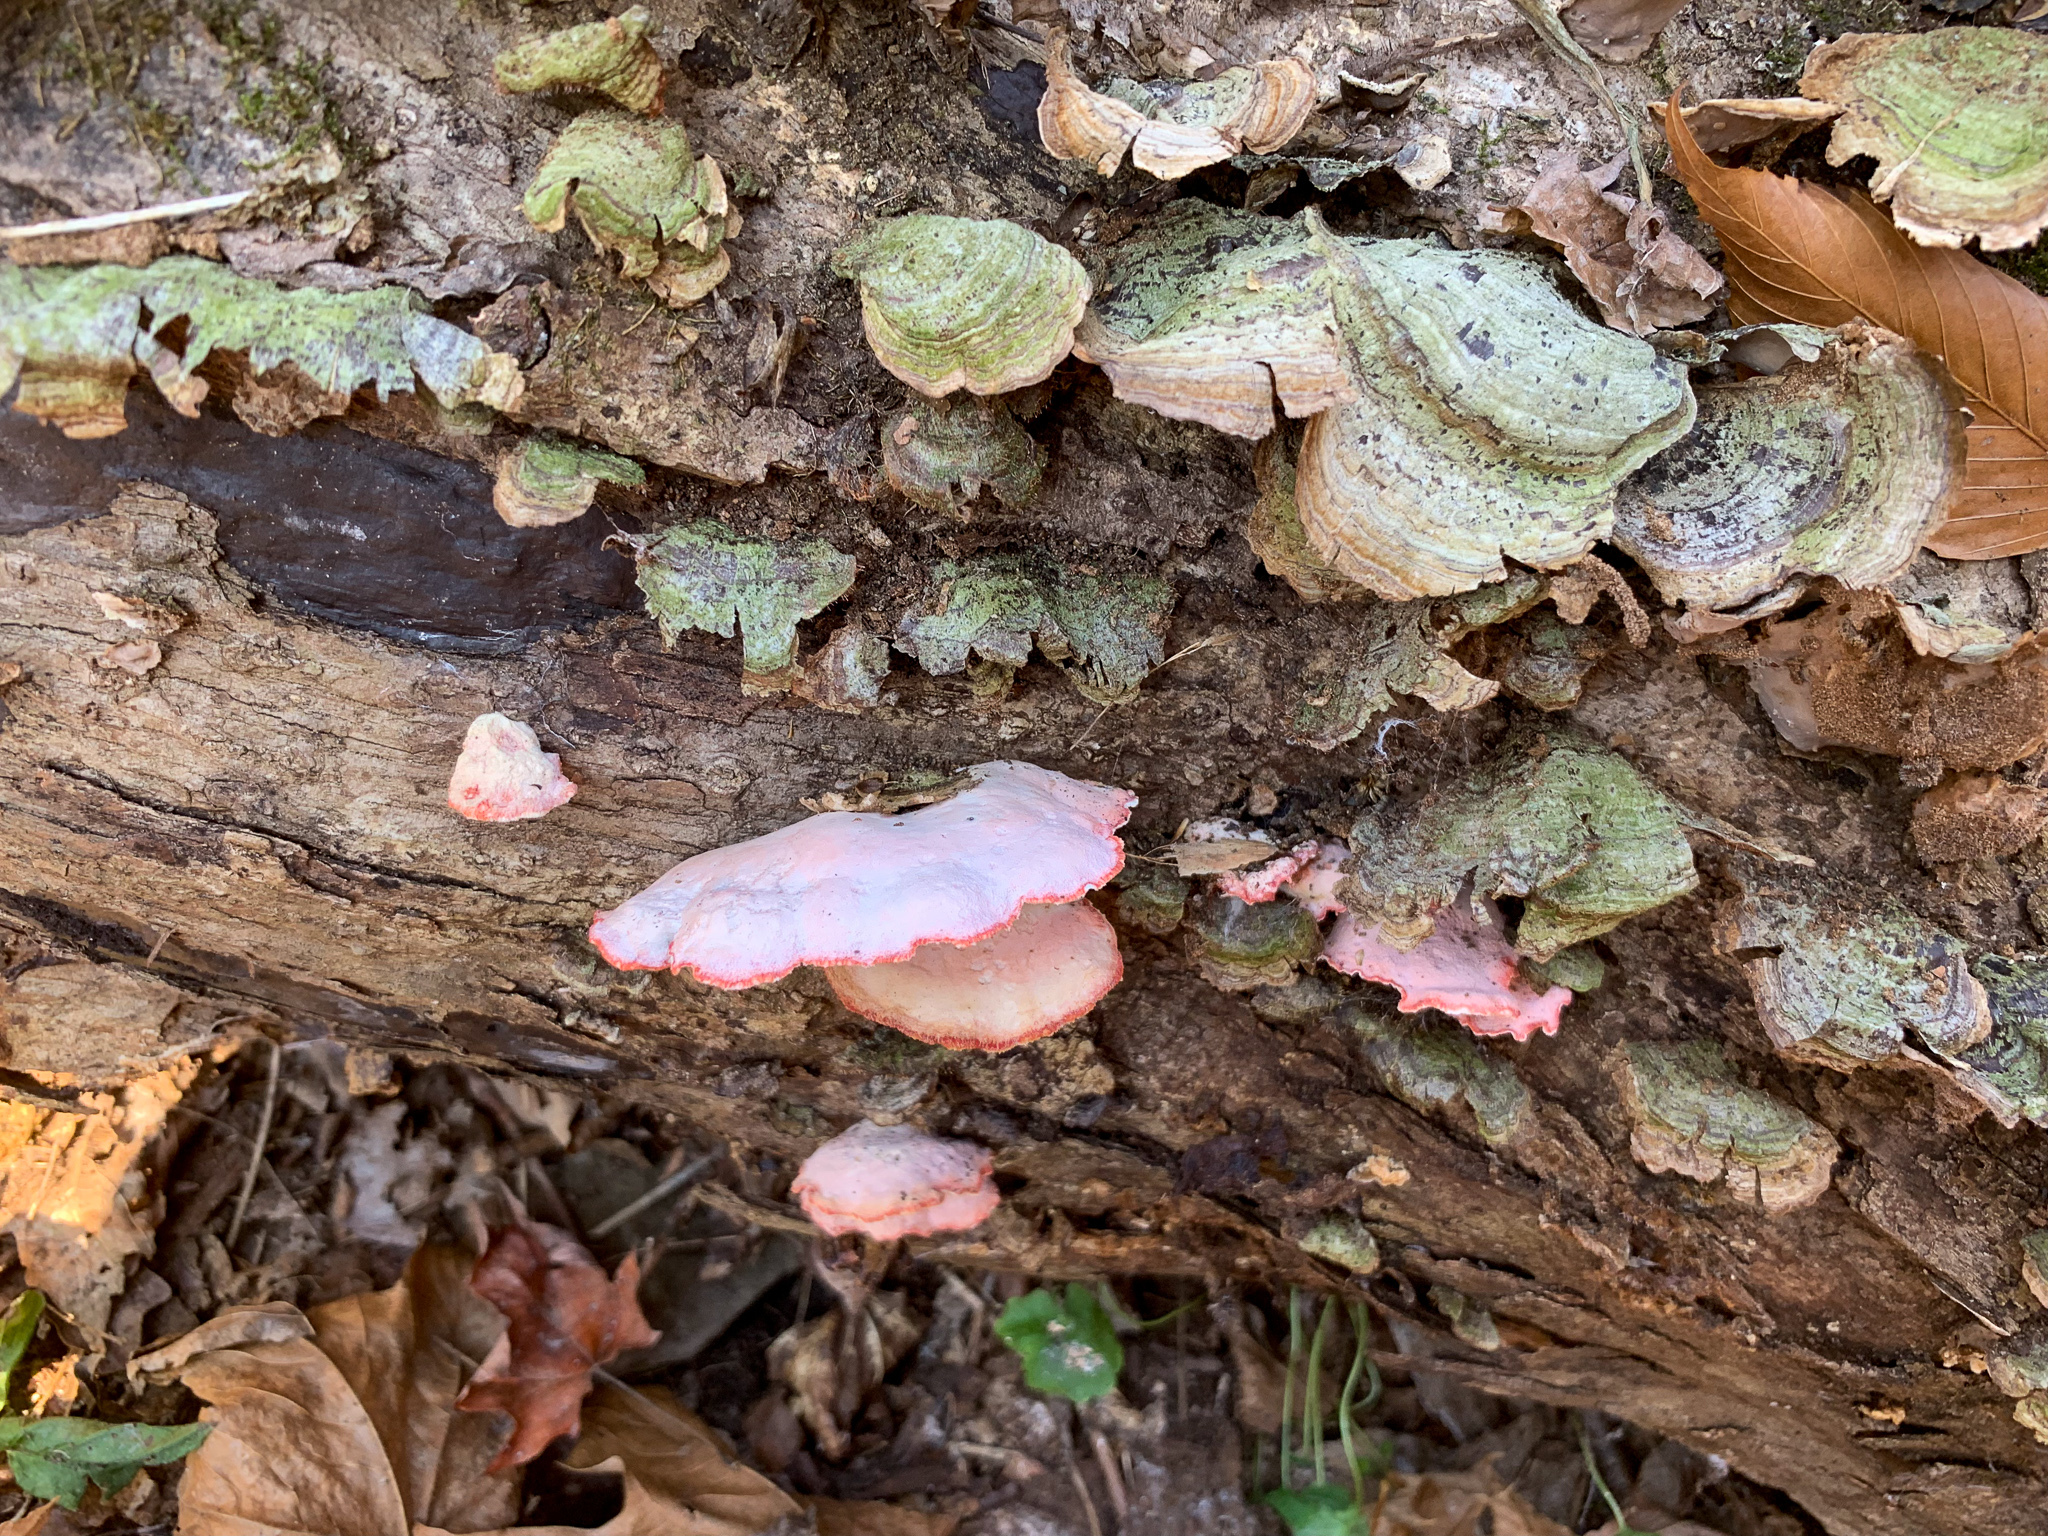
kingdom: Fungi
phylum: Basidiomycota
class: Agaricomycetes
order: Polyporales
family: Irpicaceae
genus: Byssomerulius
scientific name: Byssomerulius incarnatus
